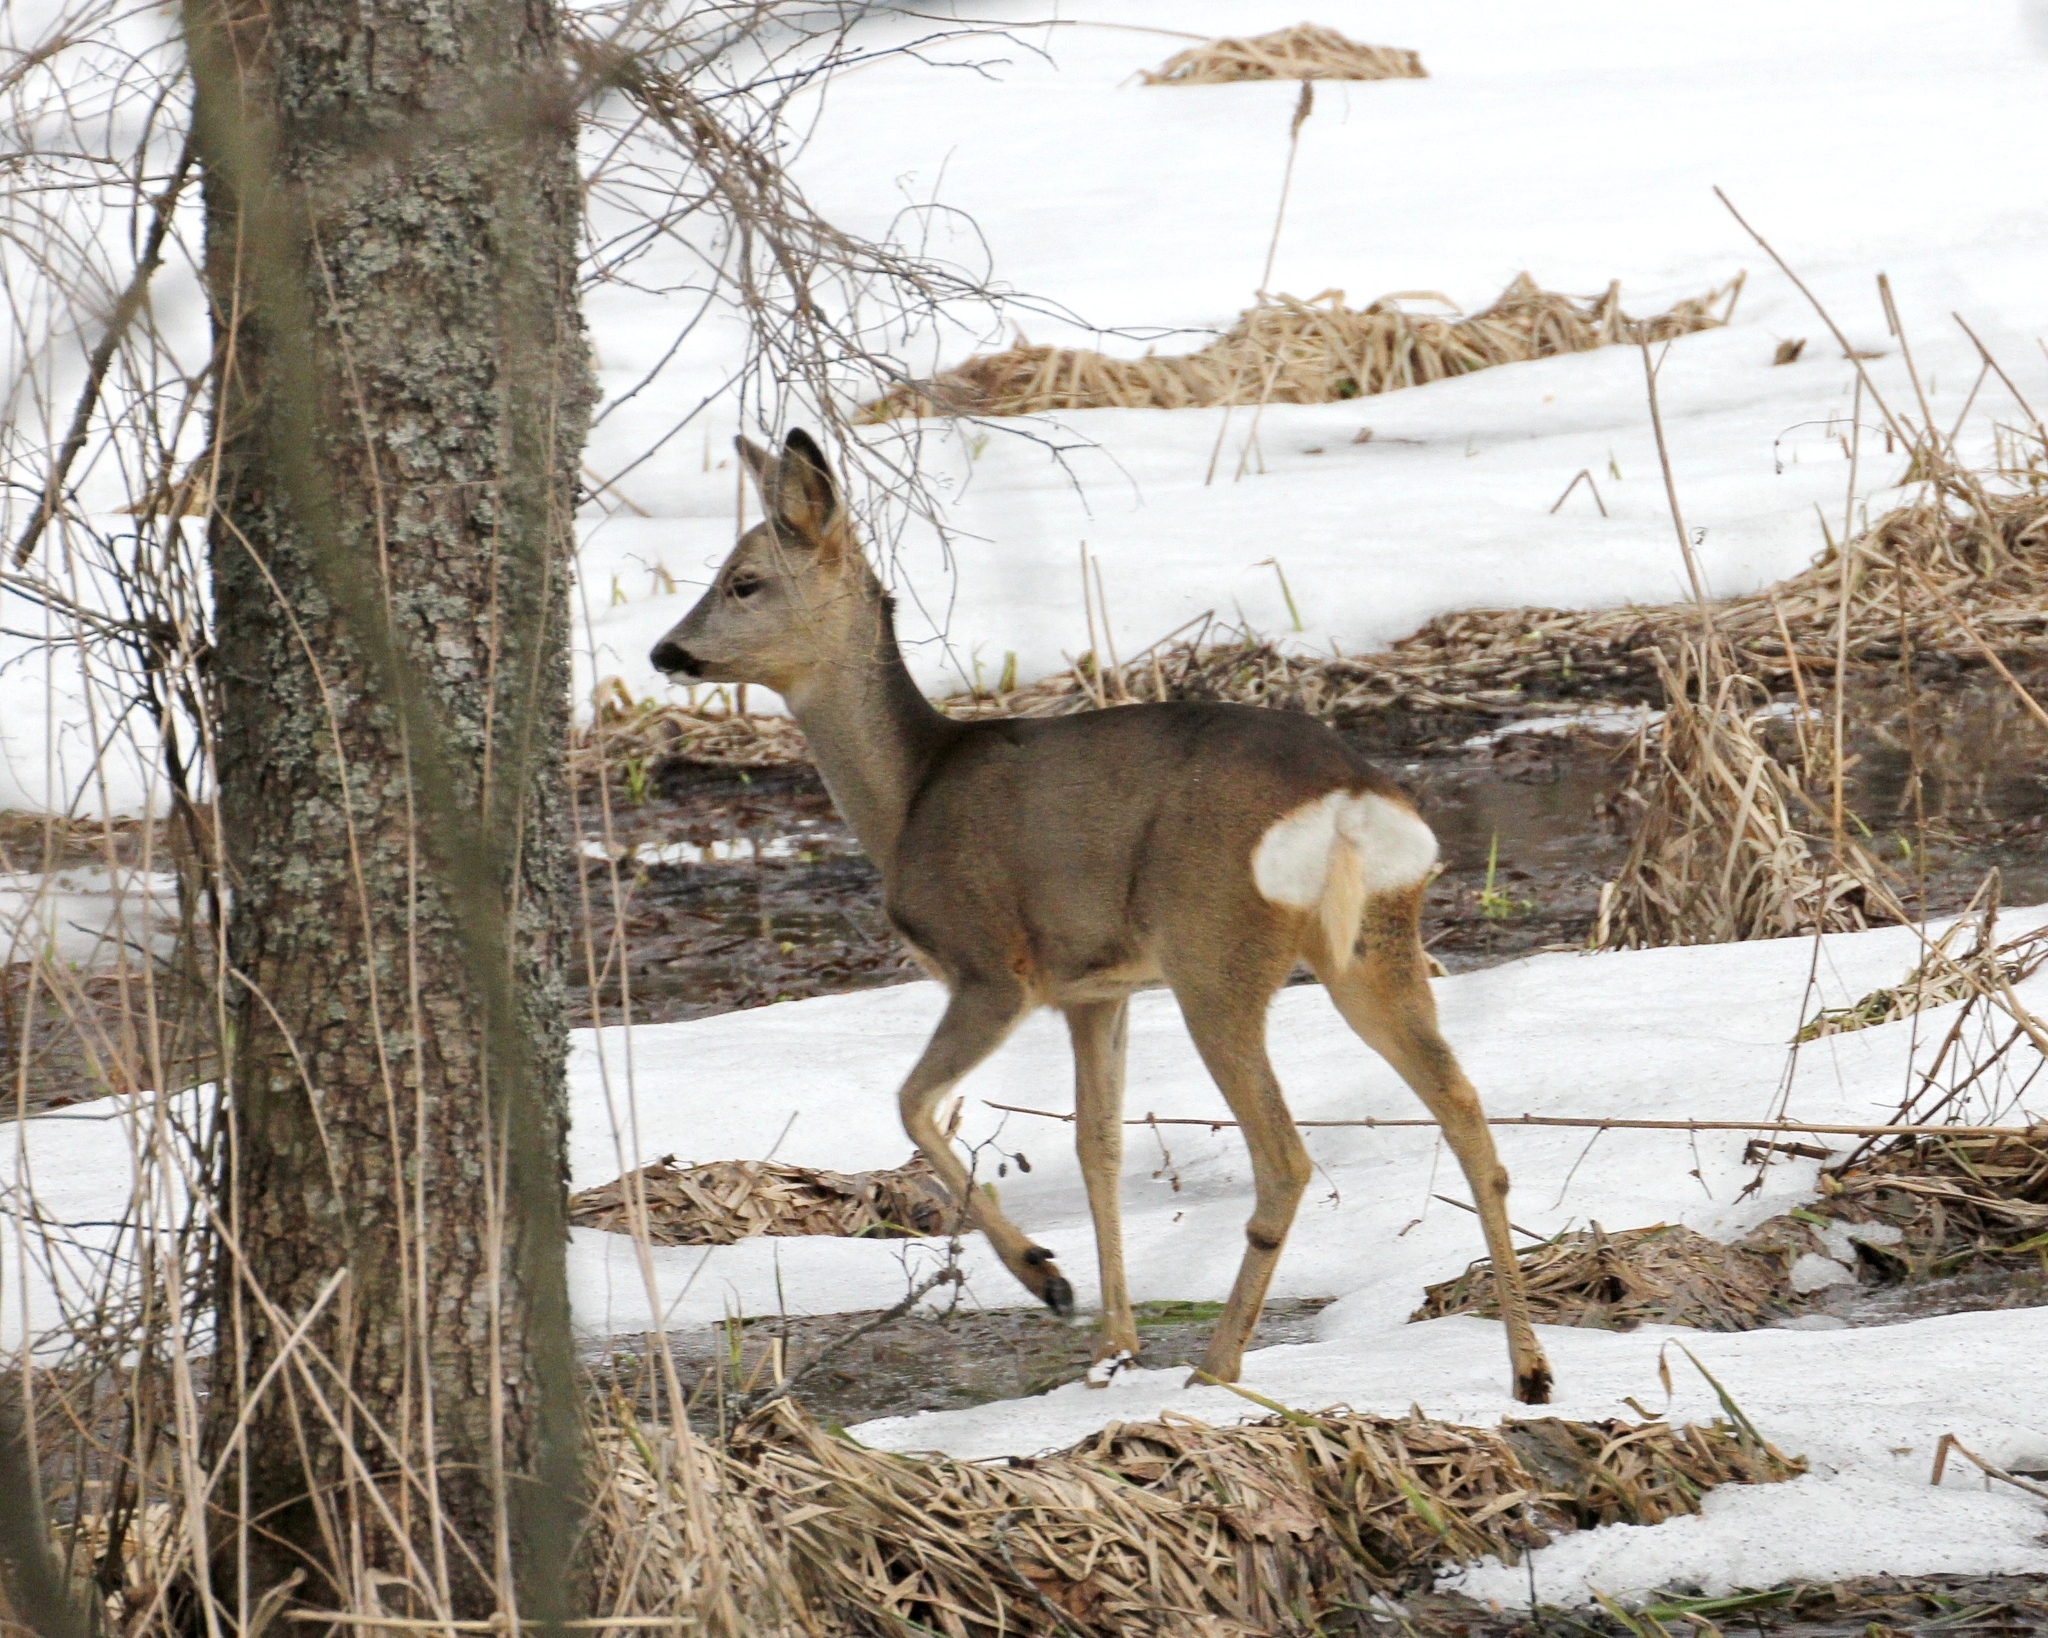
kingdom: Animalia
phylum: Chordata
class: Mammalia
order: Artiodactyla
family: Cervidae
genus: Capreolus
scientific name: Capreolus capreolus
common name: Western roe deer
